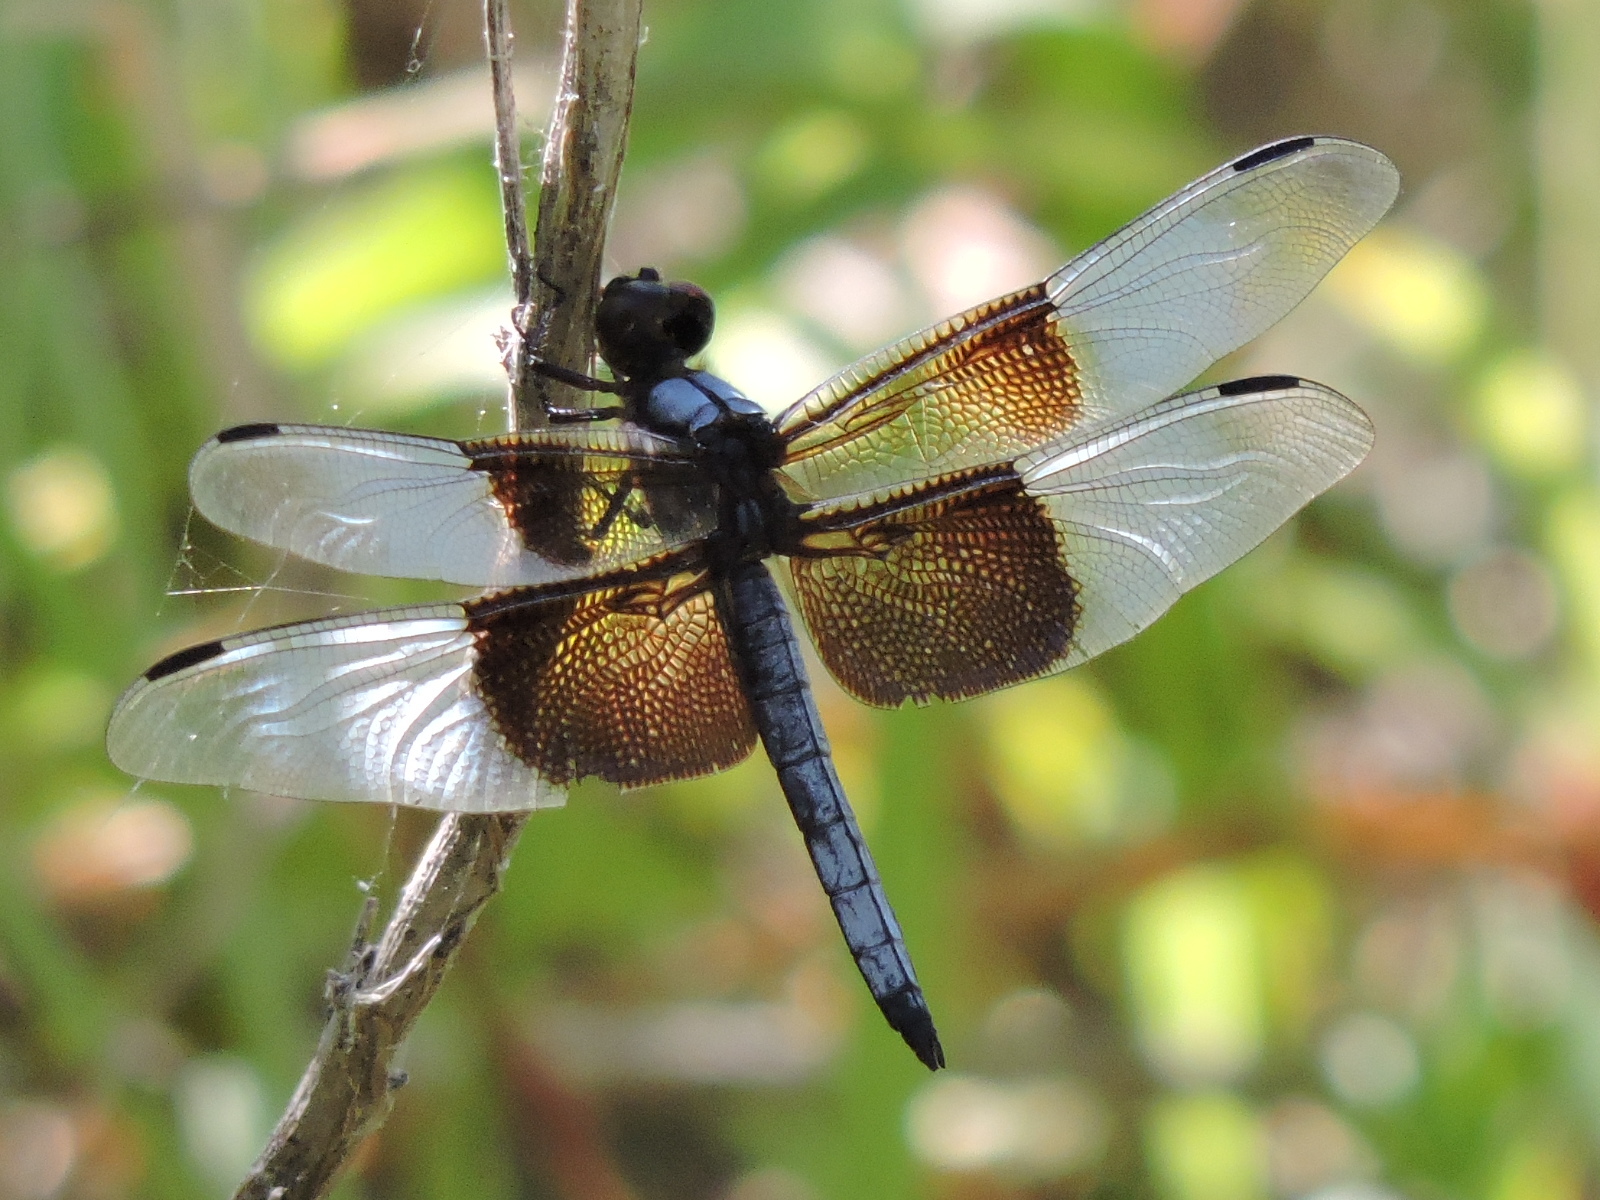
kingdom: Animalia
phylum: Arthropoda
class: Insecta
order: Odonata
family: Libellulidae
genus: Libellula
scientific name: Libellula luctuosa
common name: Widow skimmer
